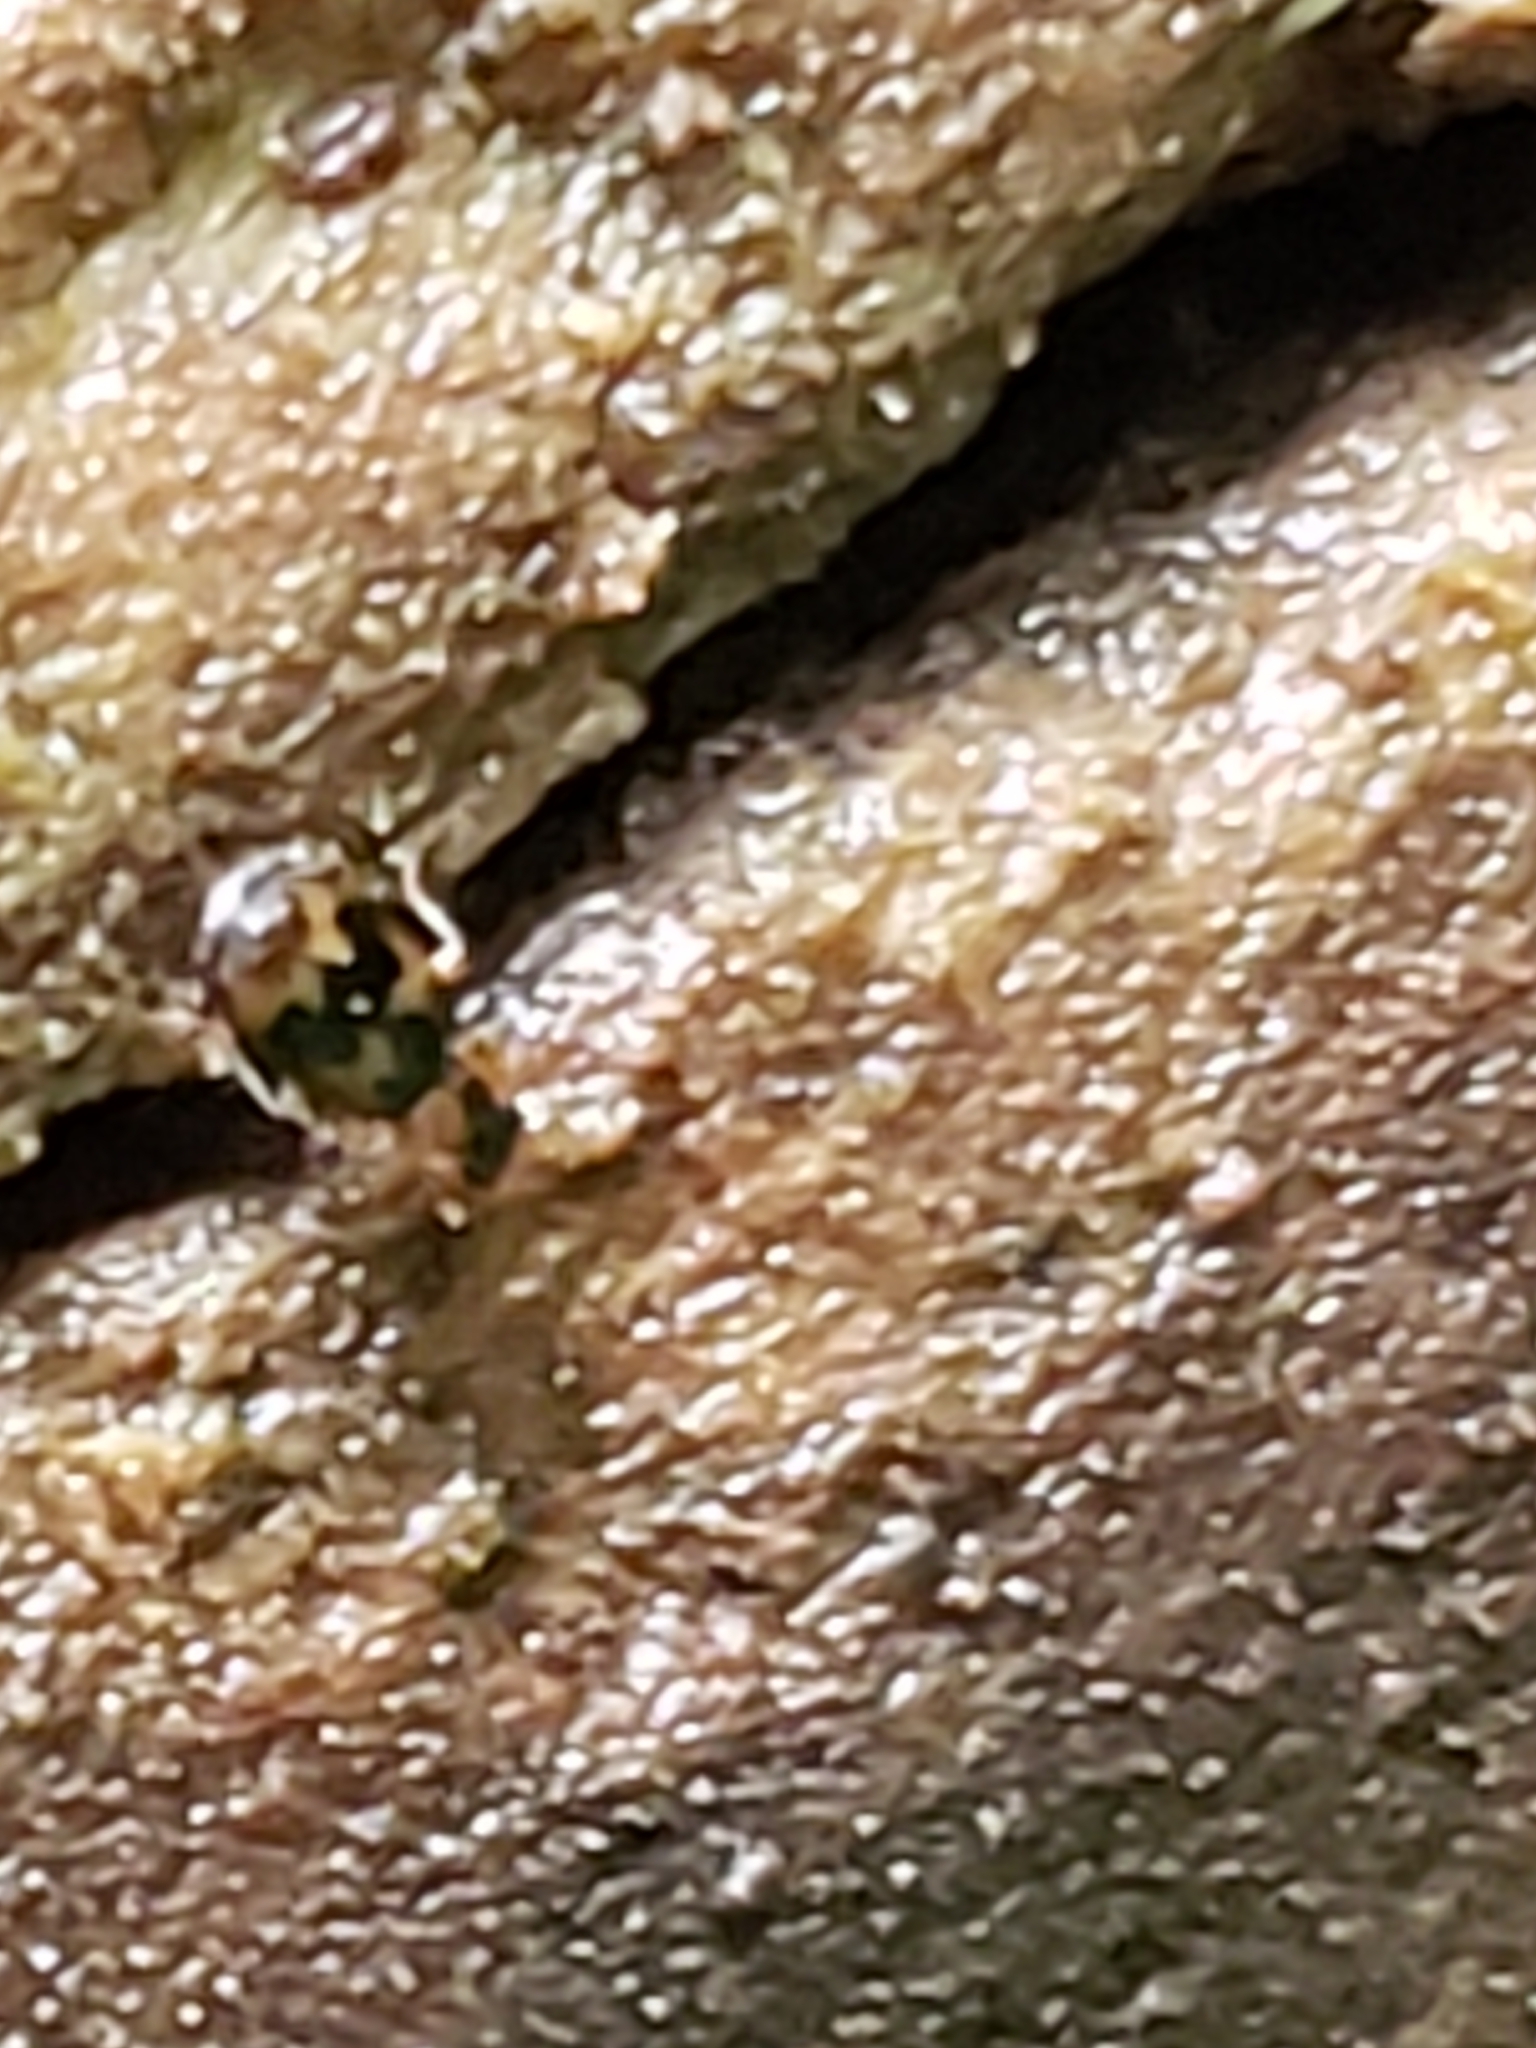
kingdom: Animalia
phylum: Arthropoda
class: Insecta
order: Coleoptera
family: Carabidae
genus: Phloeoxena
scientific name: Phloeoxena signata
